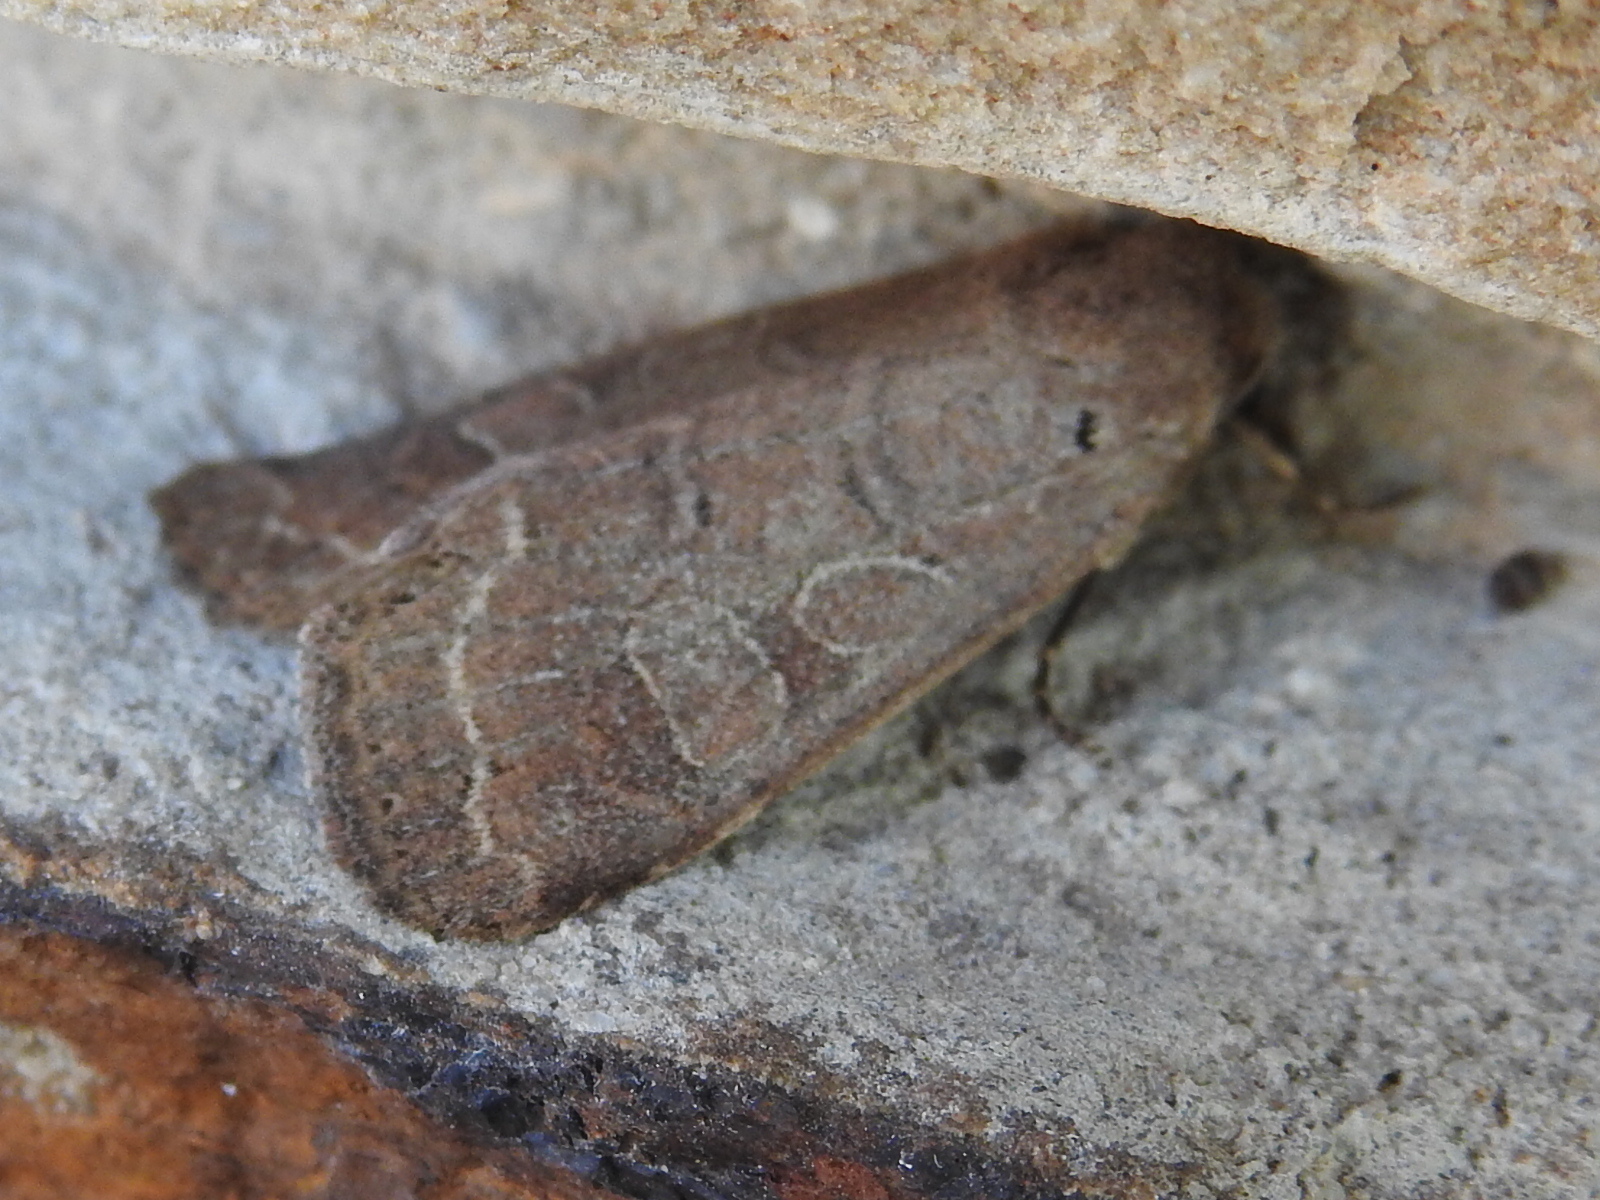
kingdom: Animalia
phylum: Arthropoda
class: Insecta
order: Lepidoptera
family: Noctuidae
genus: Kocakina
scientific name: Kocakina fidelis
